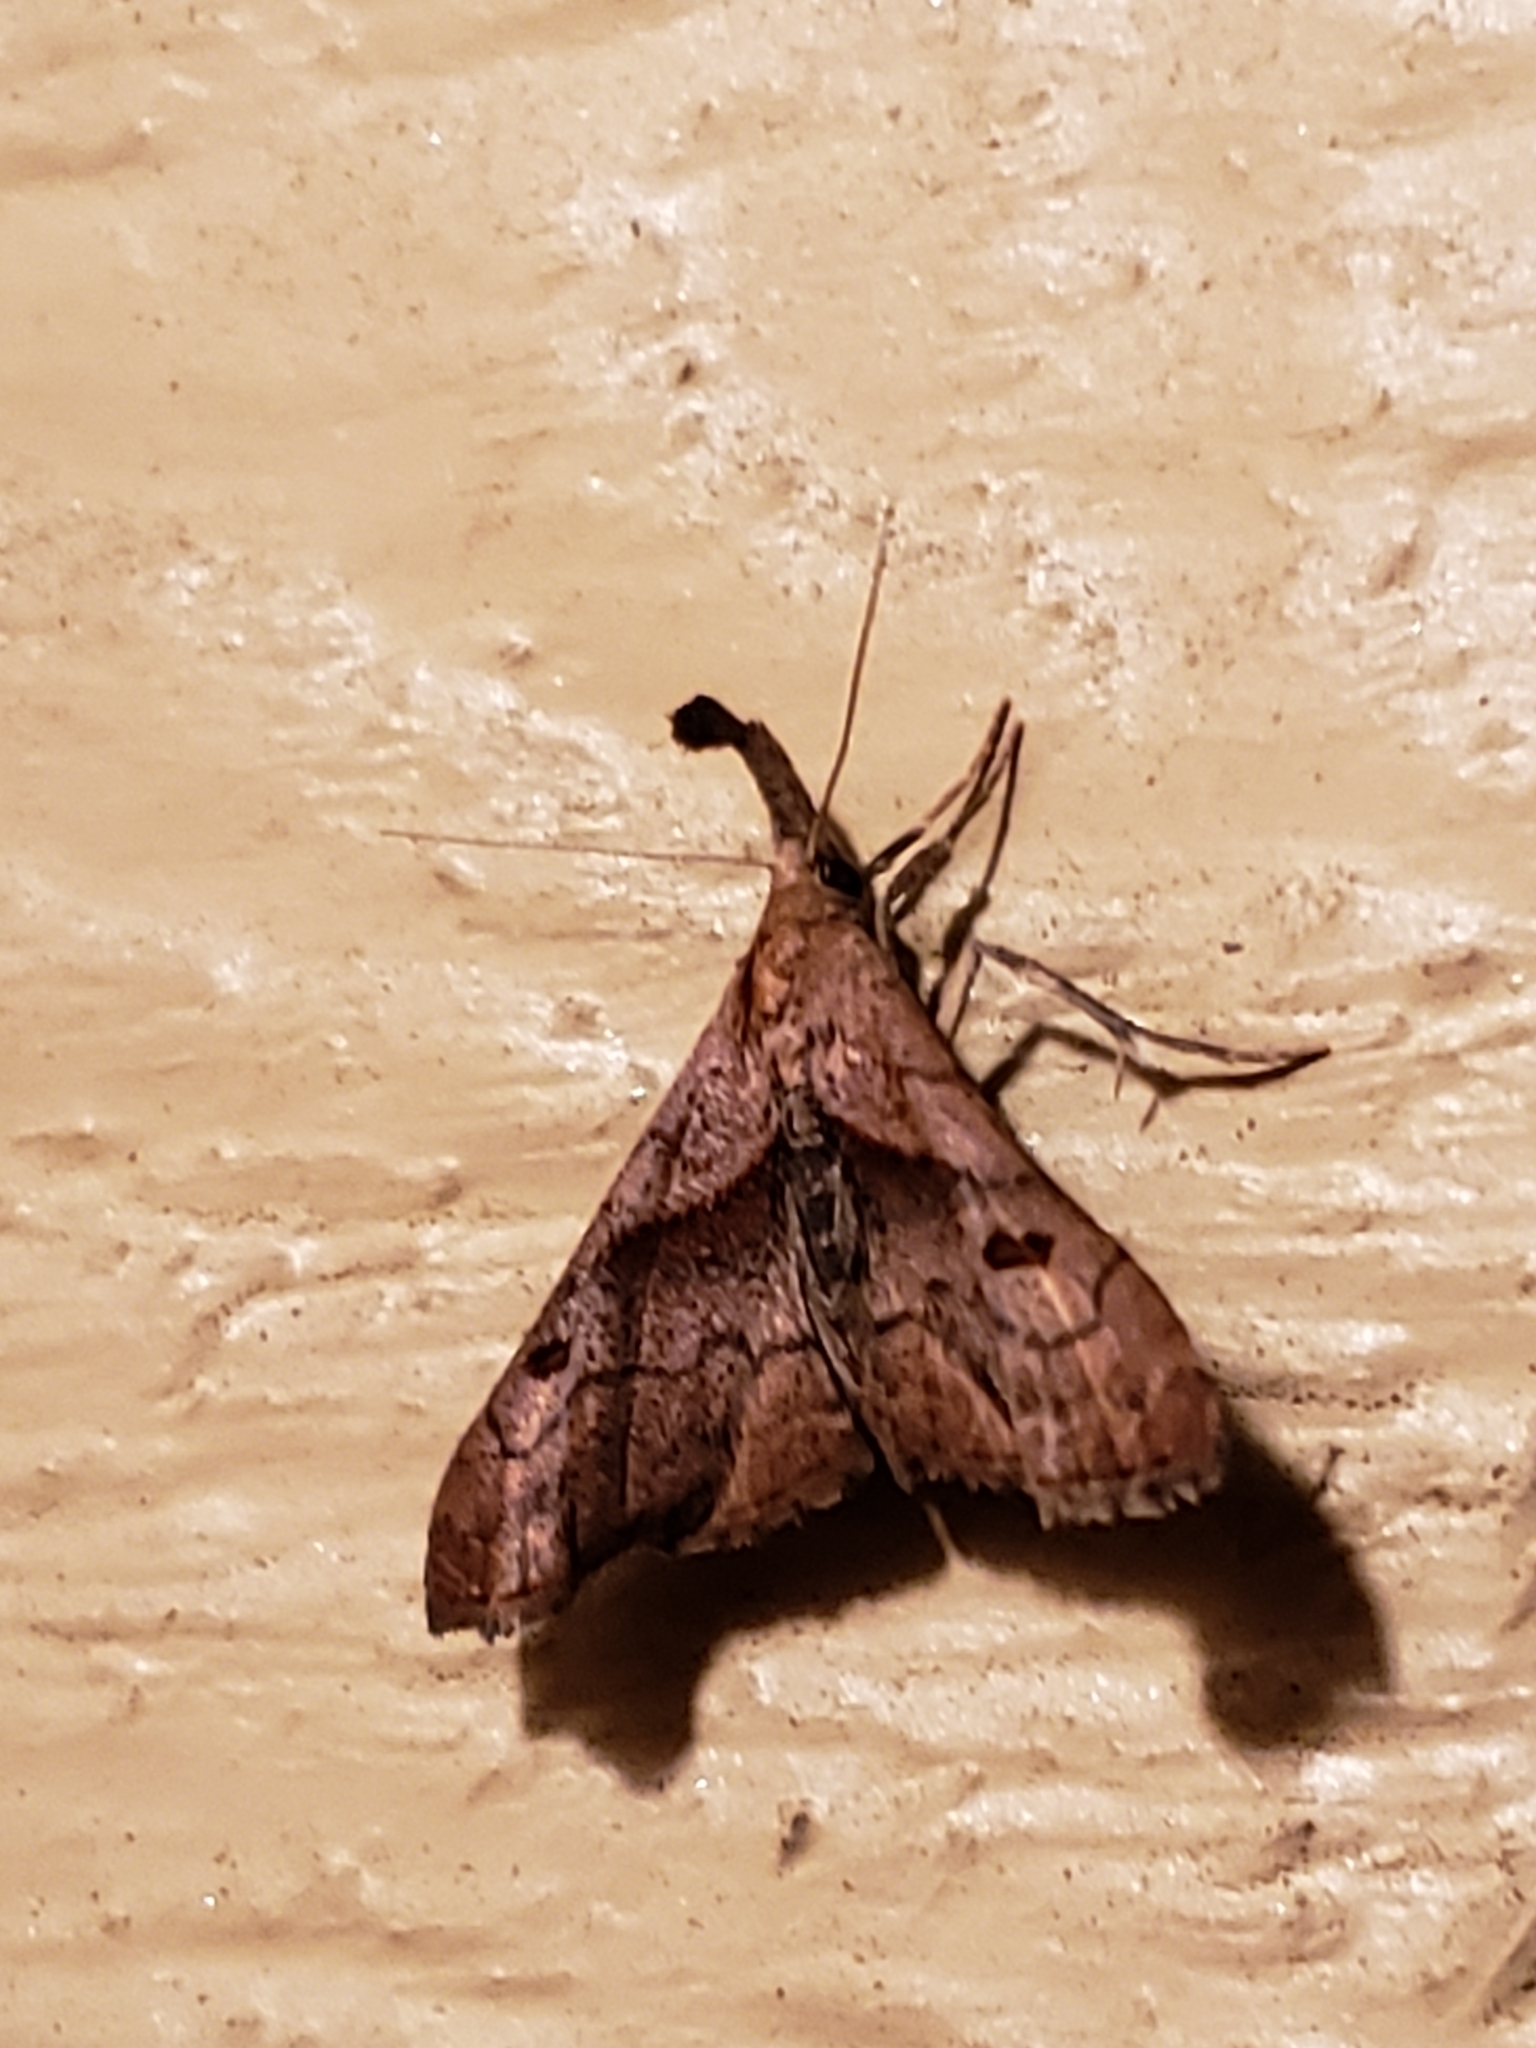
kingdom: Animalia
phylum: Arthropoda
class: Insecta
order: Lepidoptera
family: Erebidae
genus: Palthis
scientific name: Palthis angulalis
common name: Dark-spotted palthis moth
